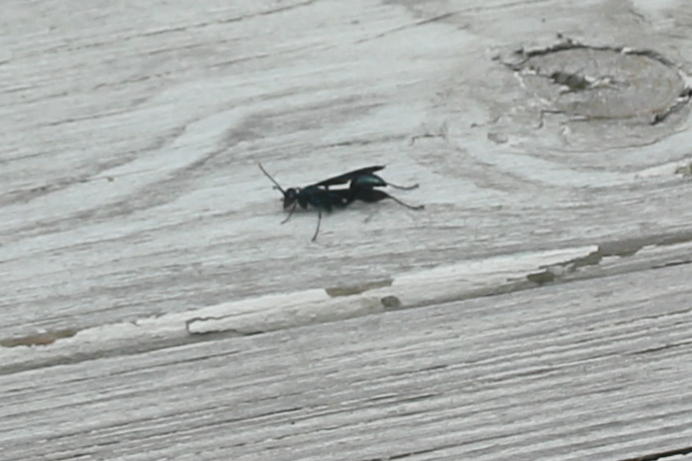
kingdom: Animalia
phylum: Arthropoda
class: Insecta
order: Hymenoptera
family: Sphecidae
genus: Chalybion
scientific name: Chalybion californicum
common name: Mud dauber
